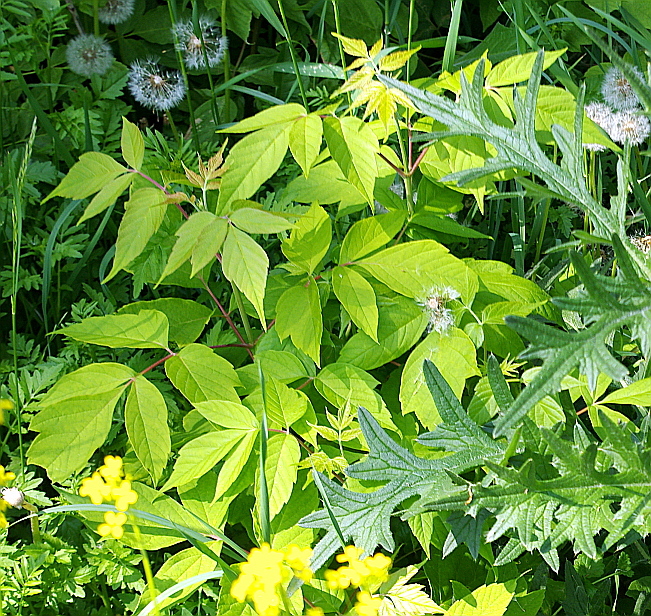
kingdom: Plantae
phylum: Tracheophyta
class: Magnoliopsida
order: Sapindales
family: Sapindaceae
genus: Acer
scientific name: Acer negundo
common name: Ashleaf maple
